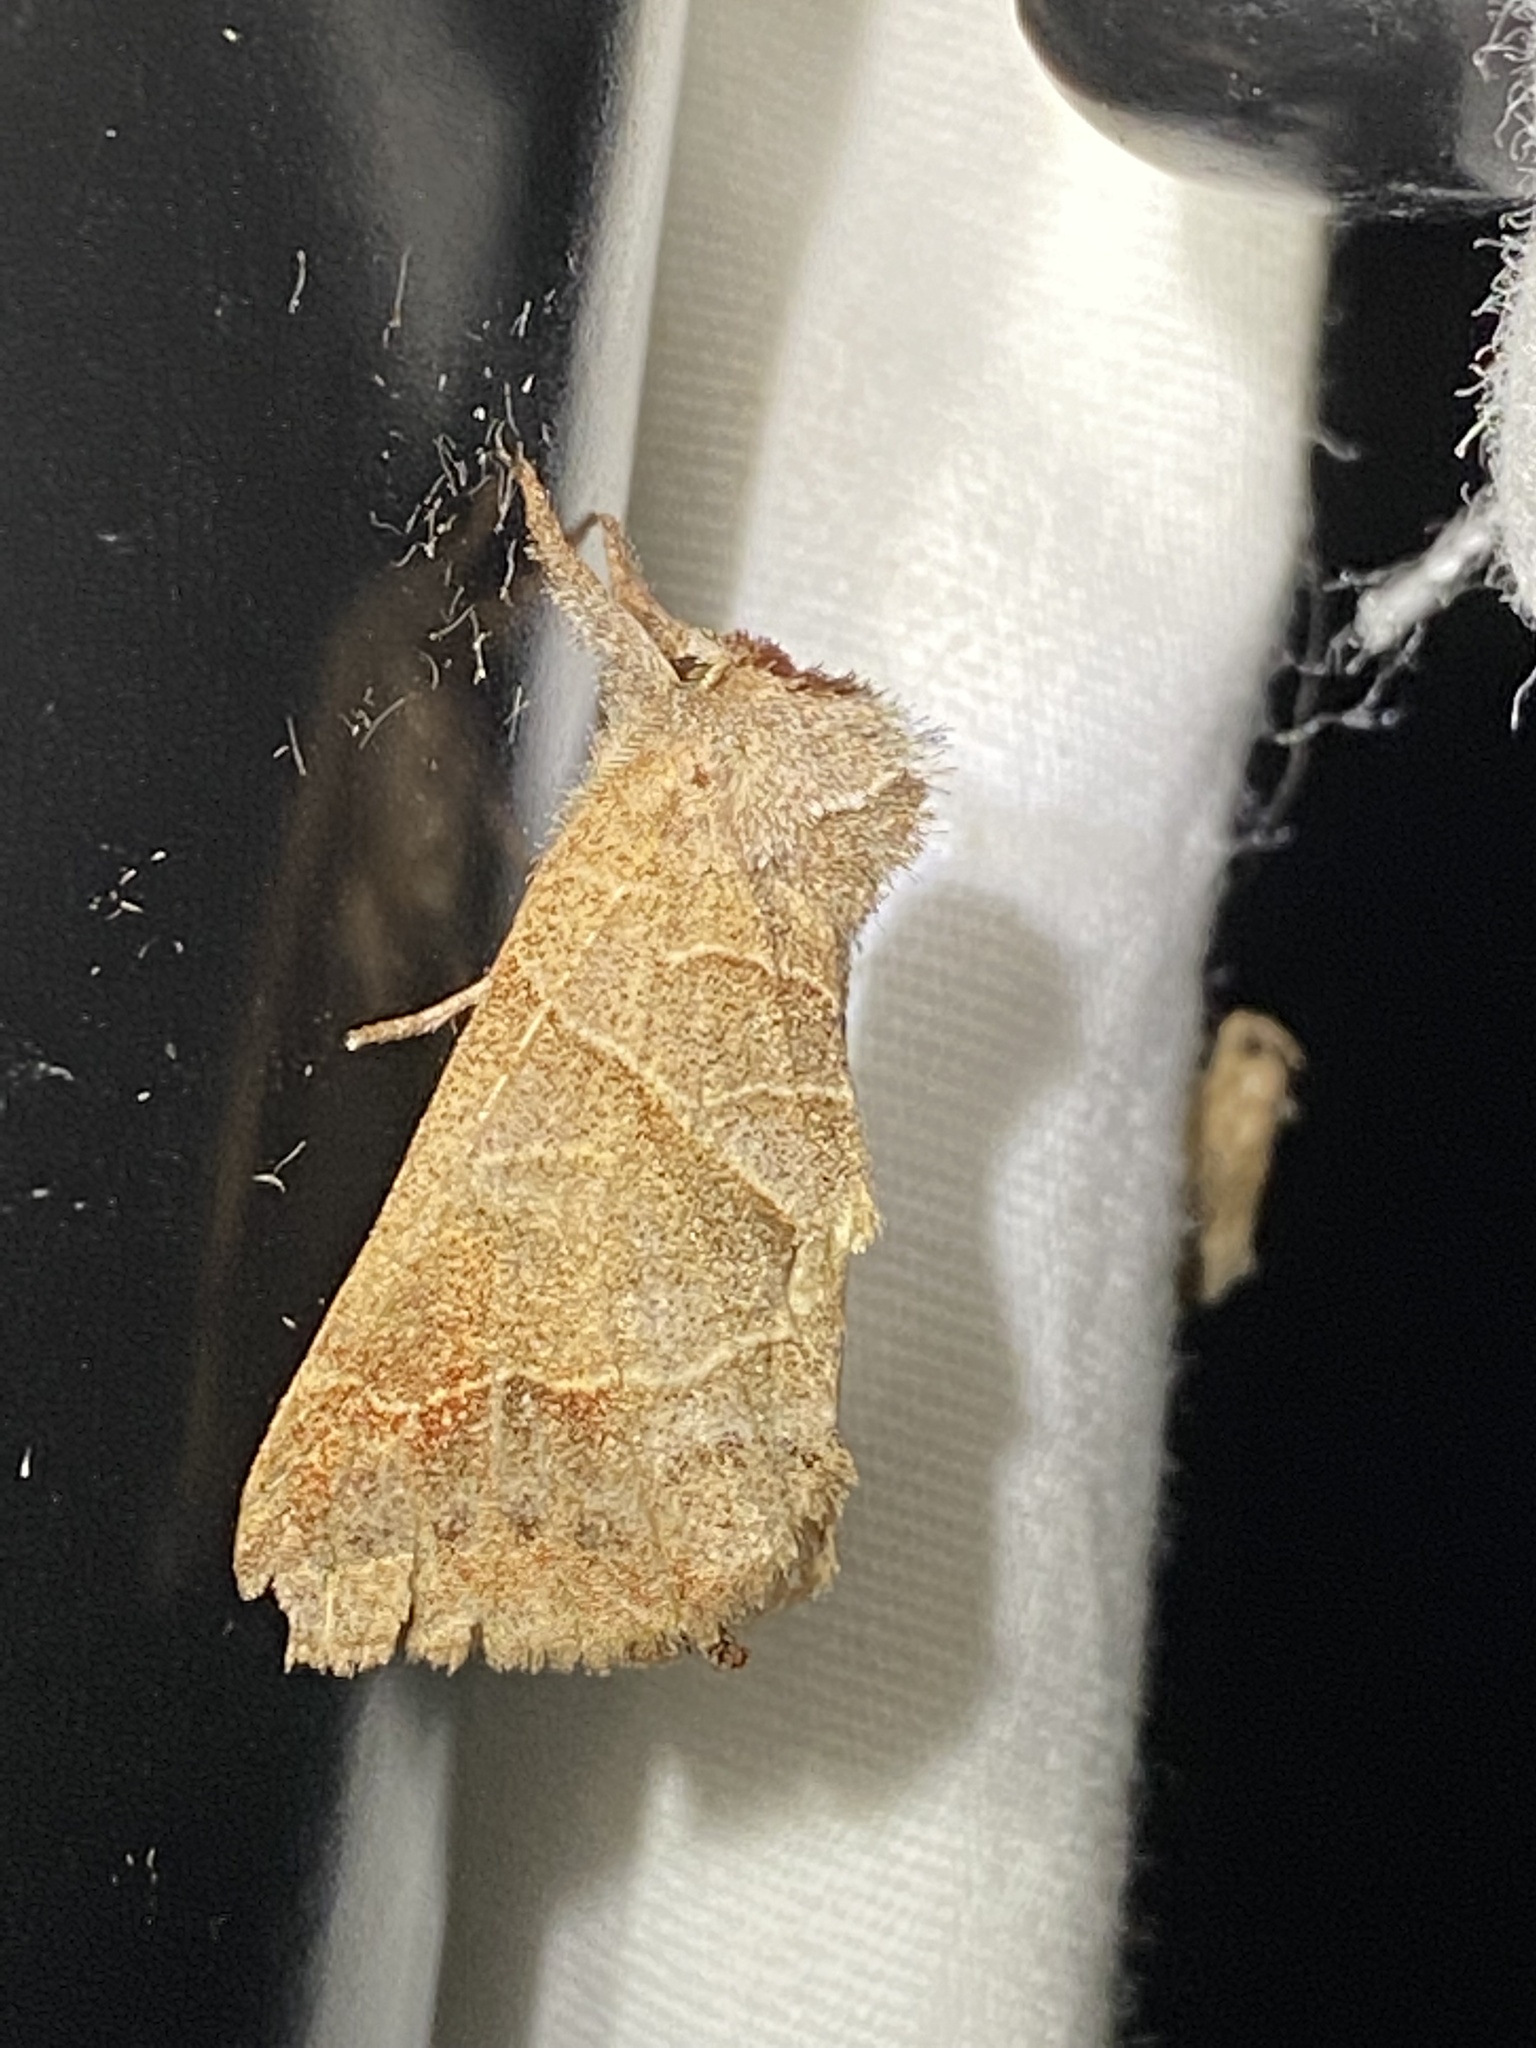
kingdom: Animalia
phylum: Arthropoda
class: Insecta
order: Lepidoptera
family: Notodontidae
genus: Clostera
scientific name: Clostera inclusa
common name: Angle-lined prominent
